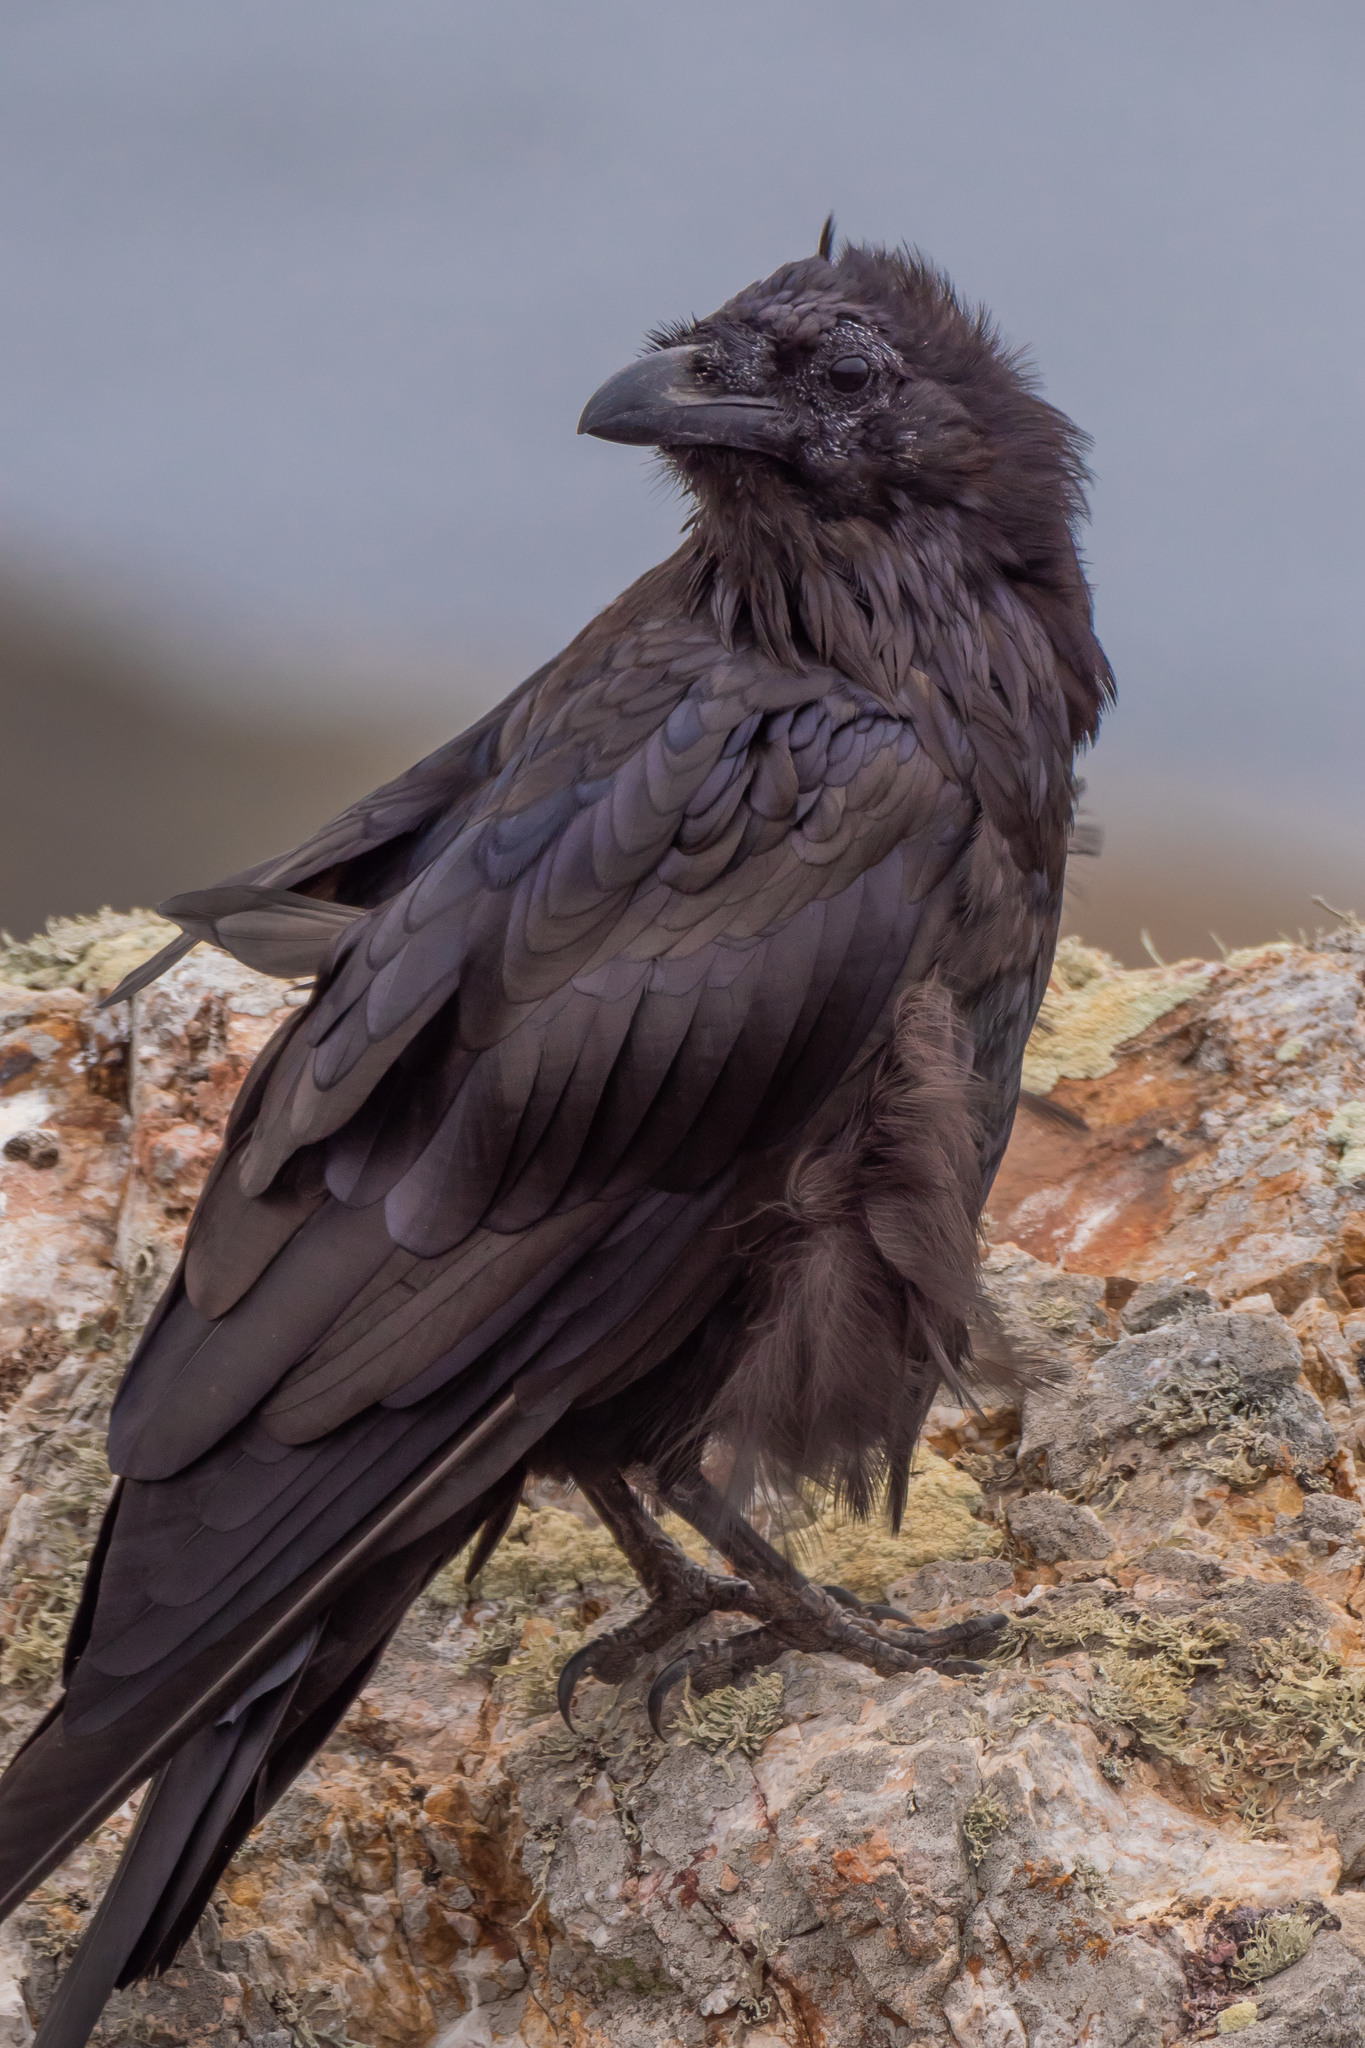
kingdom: Animalia
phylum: Chordata
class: Aves
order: Passeriformes
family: Corvidae
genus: Corvus
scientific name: Corvus corax
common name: Common raven
